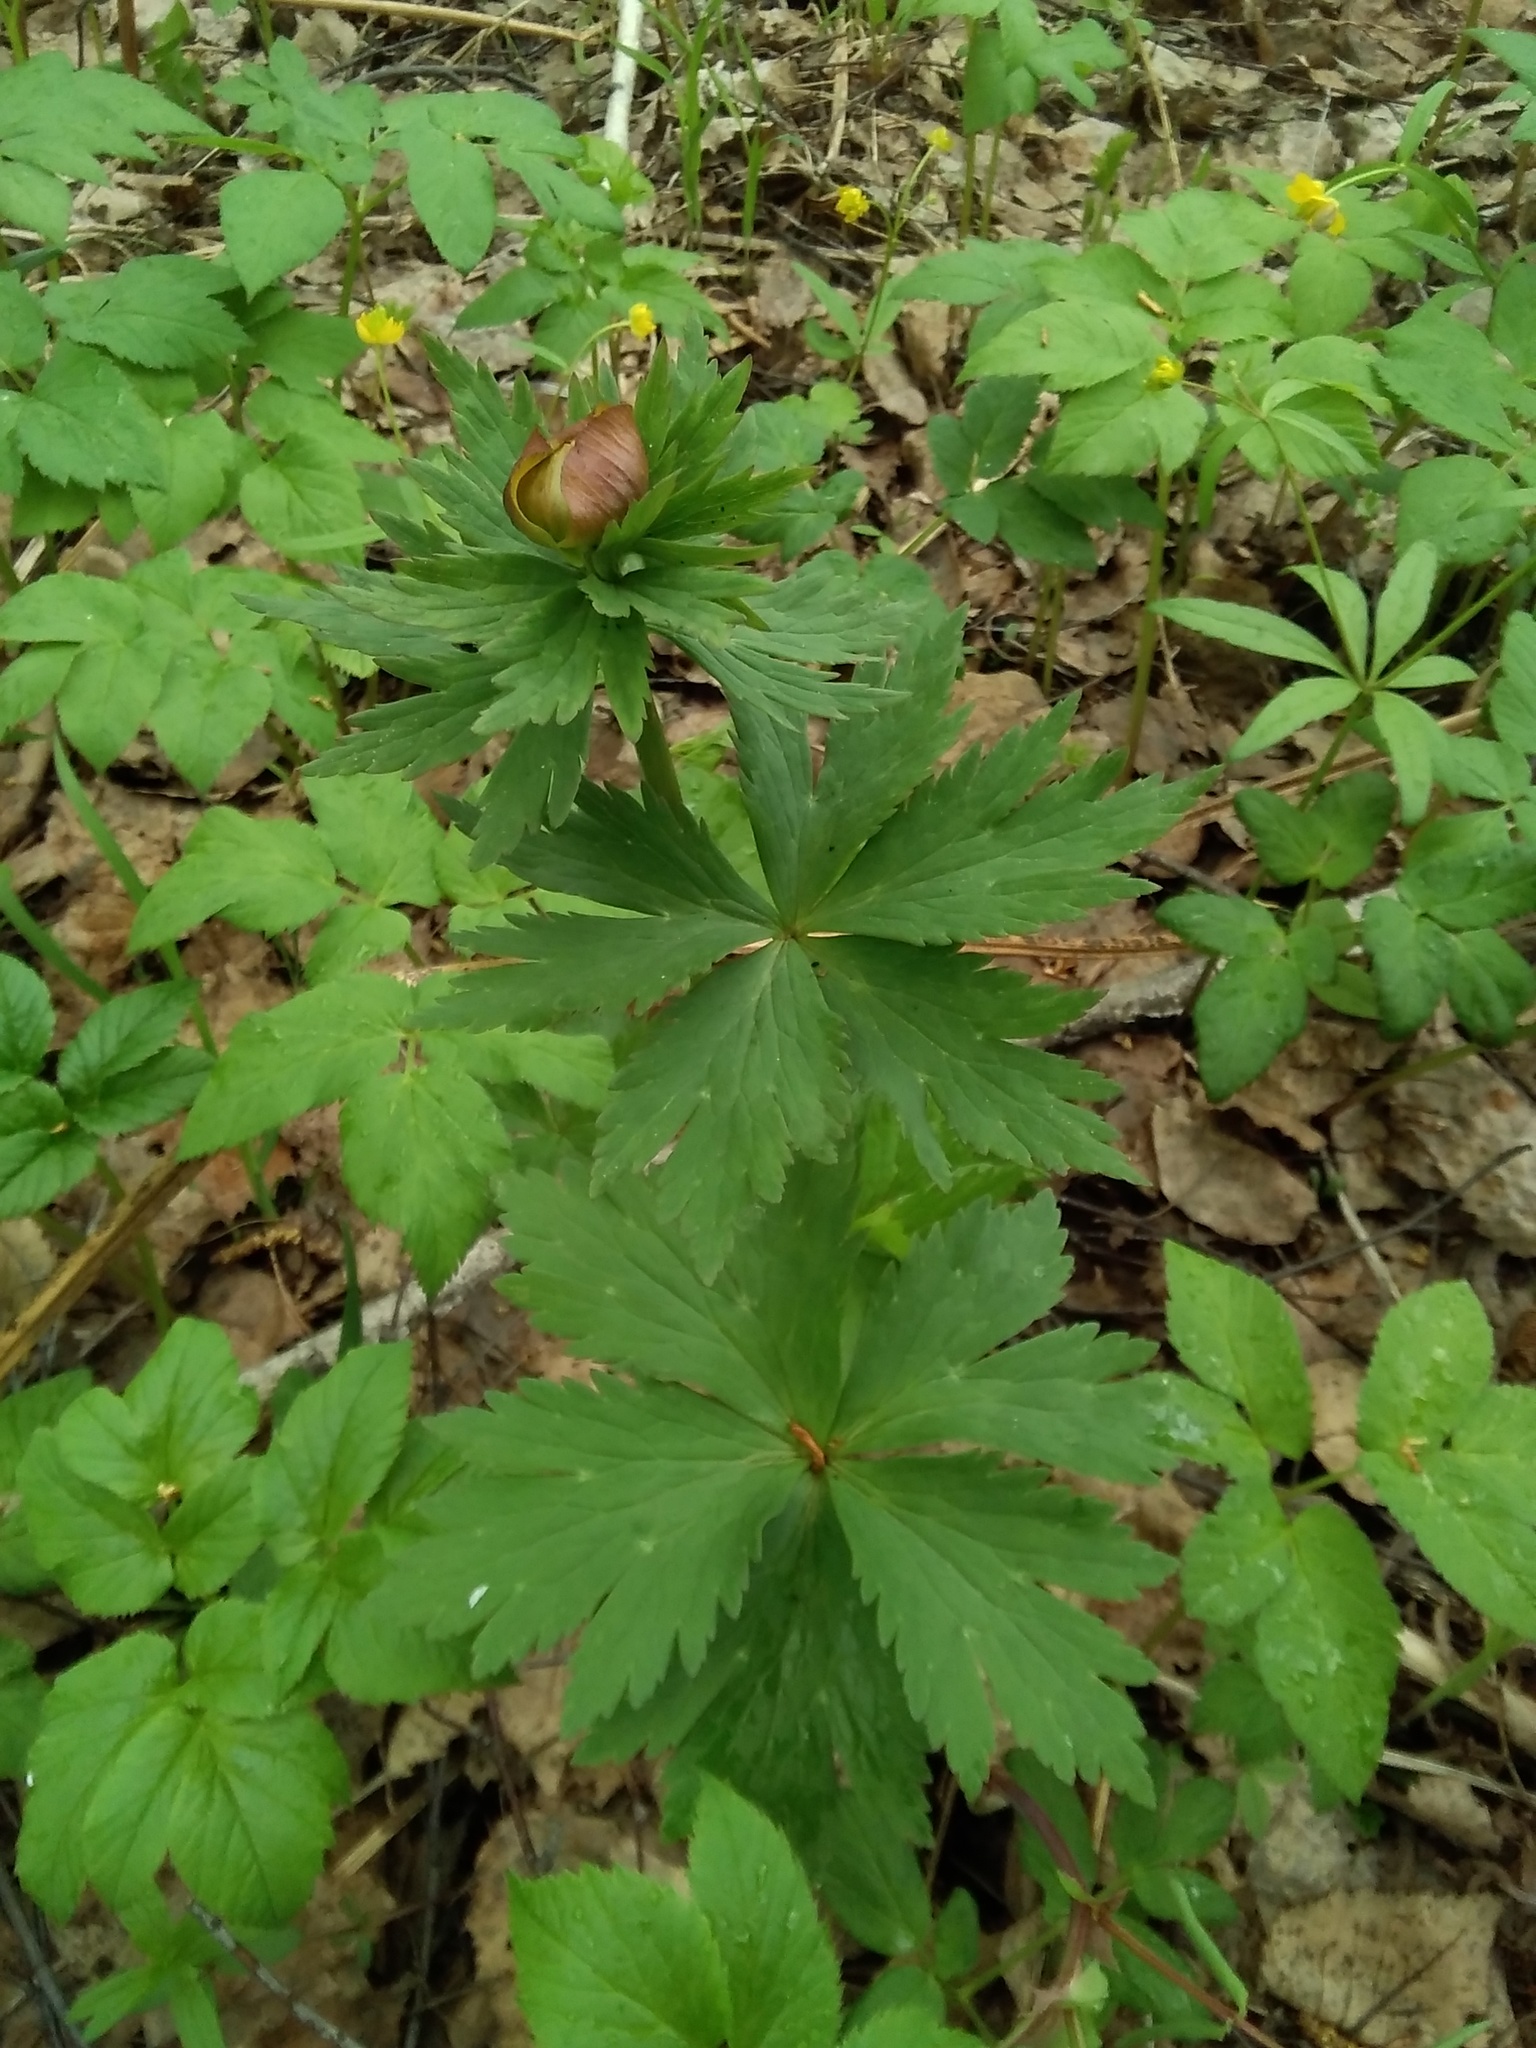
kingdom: Plantae
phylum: Tracheophyta
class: Magnoliopsida
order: Ranunculales
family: Ranunculaceae
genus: Trollius
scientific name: Trollius asiaticus
